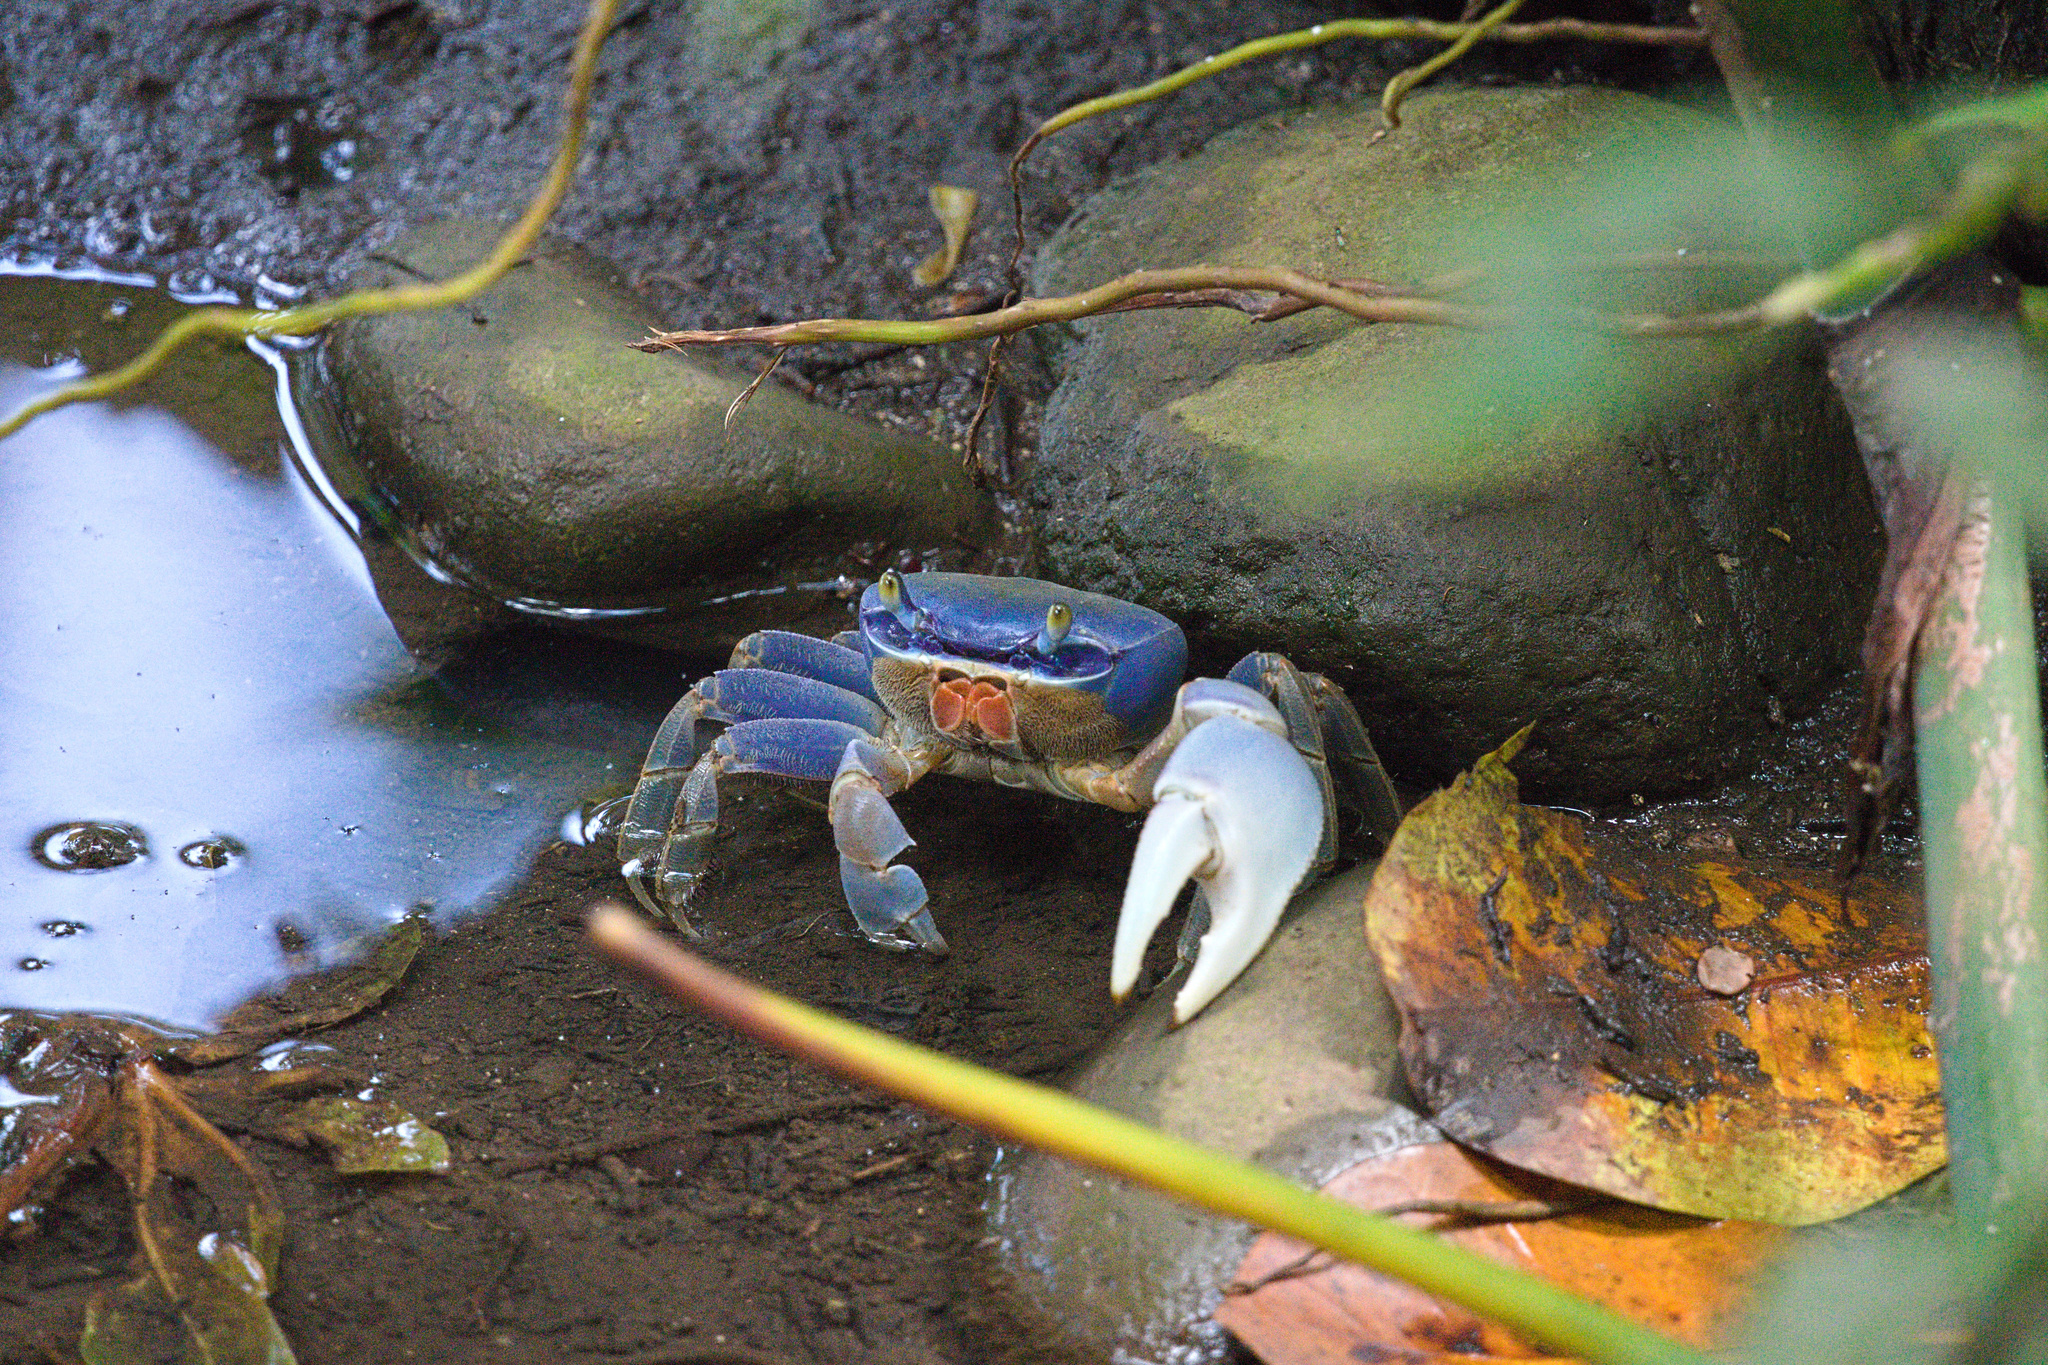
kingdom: Animalia
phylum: Arthropoda
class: Malacostraca
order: Decapoda
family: Gecarcinidae
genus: Cardisoma
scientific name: Cardisoma guanhumi
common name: Great land crab
